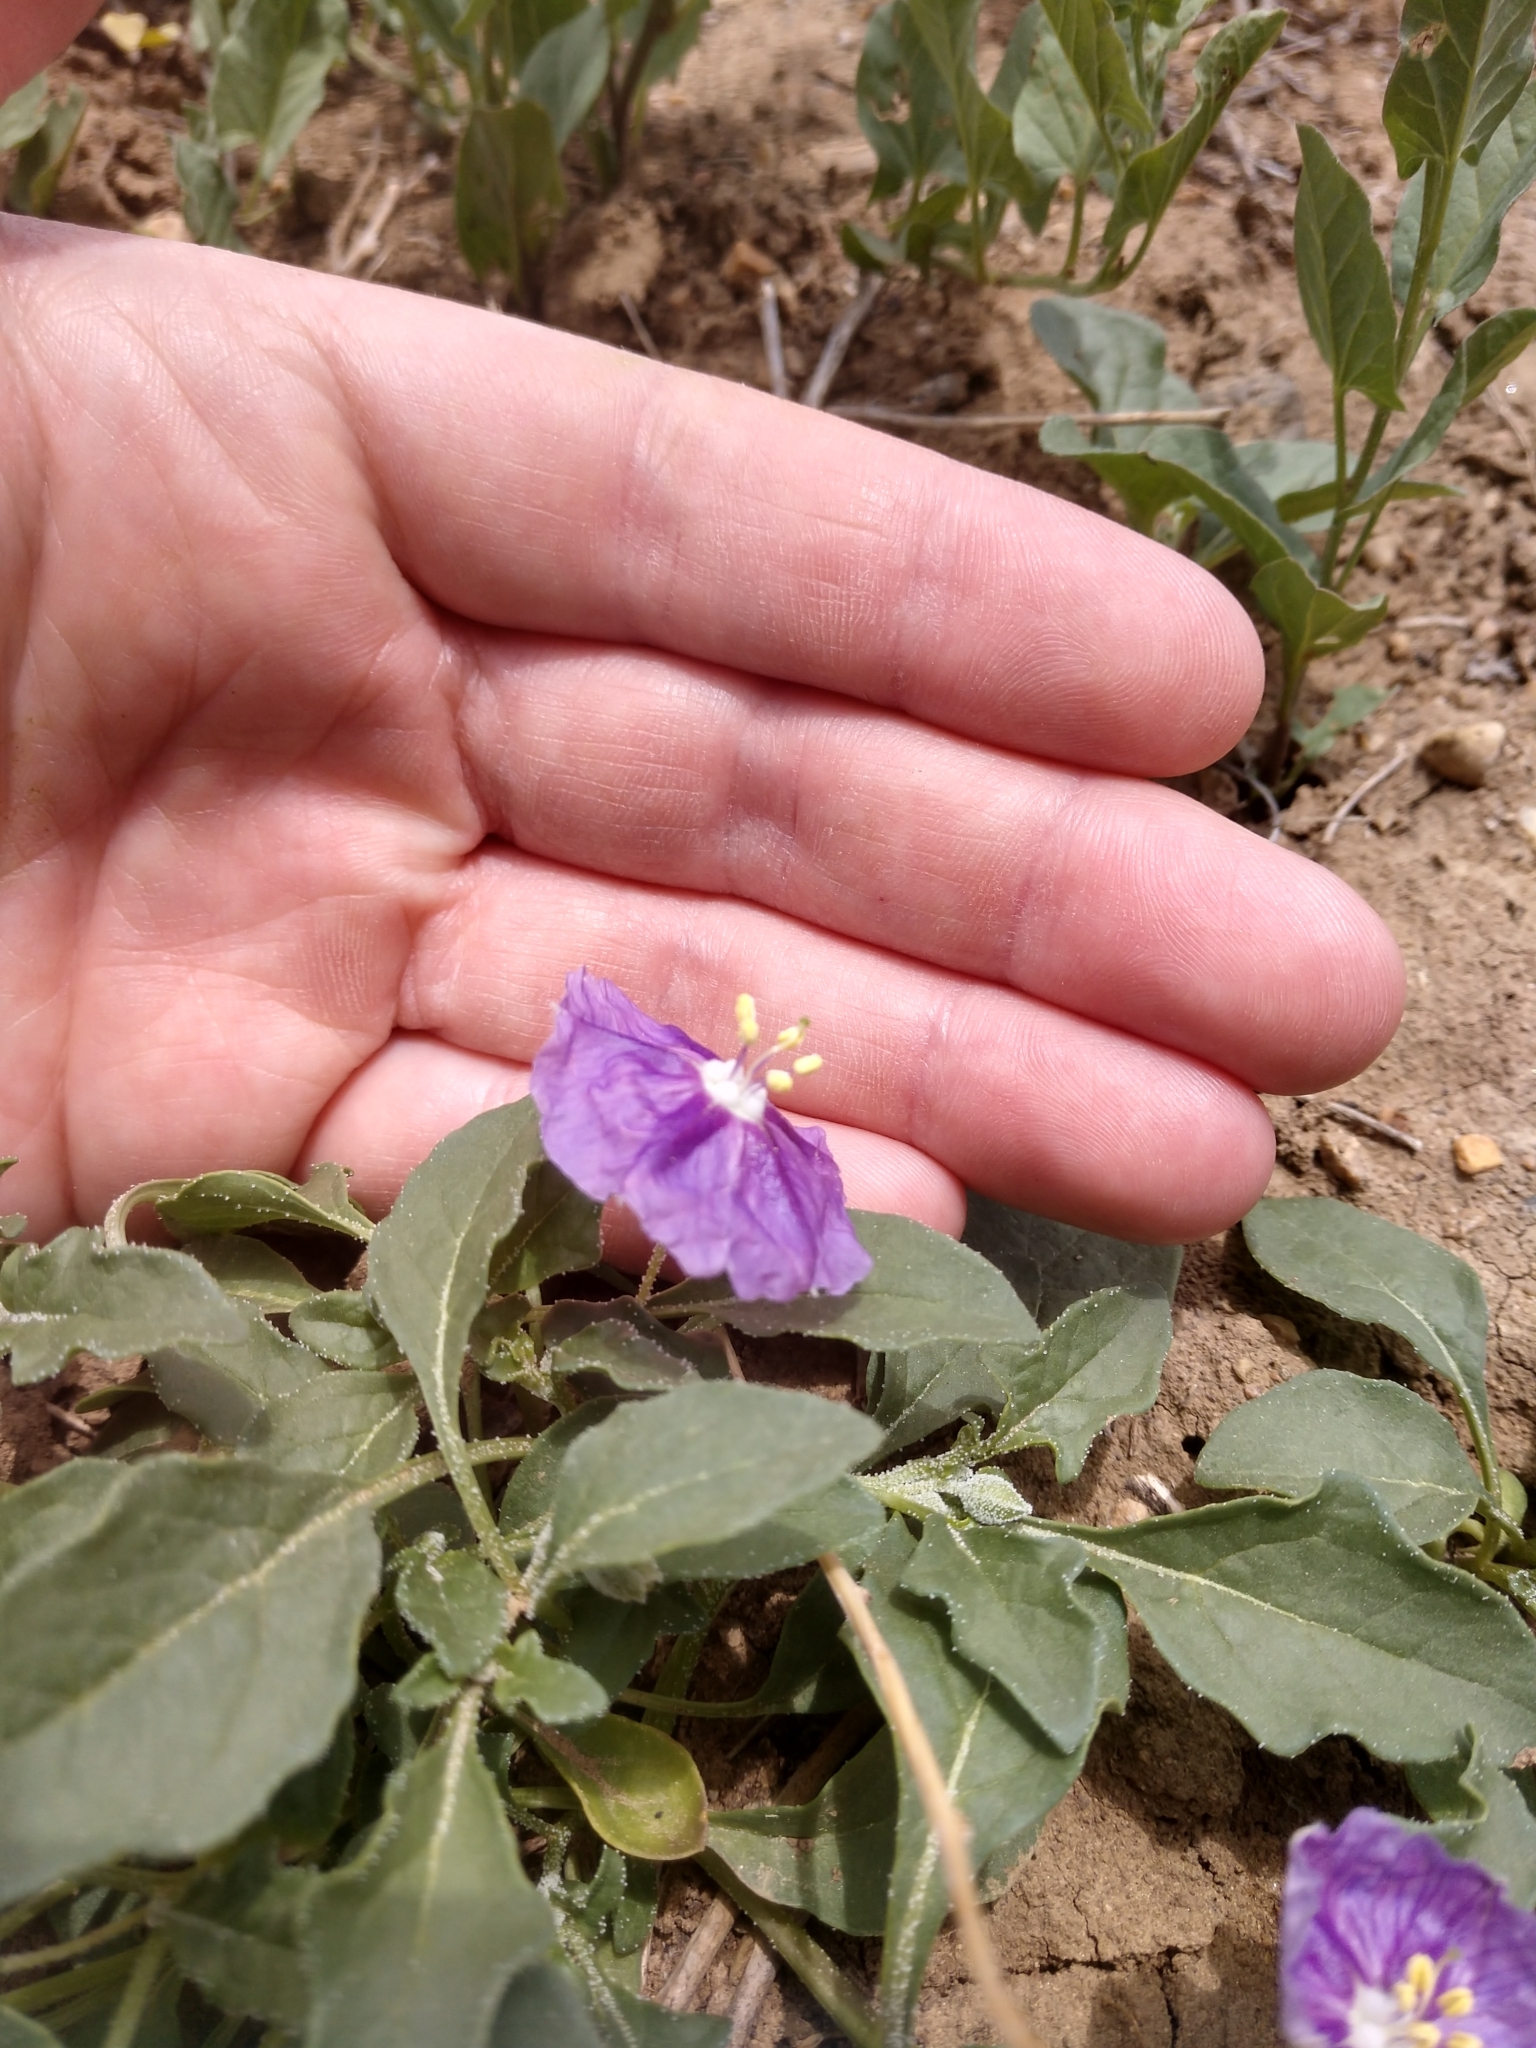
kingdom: Plantae
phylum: Tracheophyta
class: Magnoliopsida
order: Solanales
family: Solanaceae
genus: Quincula
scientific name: Quincula lobata
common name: Purple-ground-cherry
